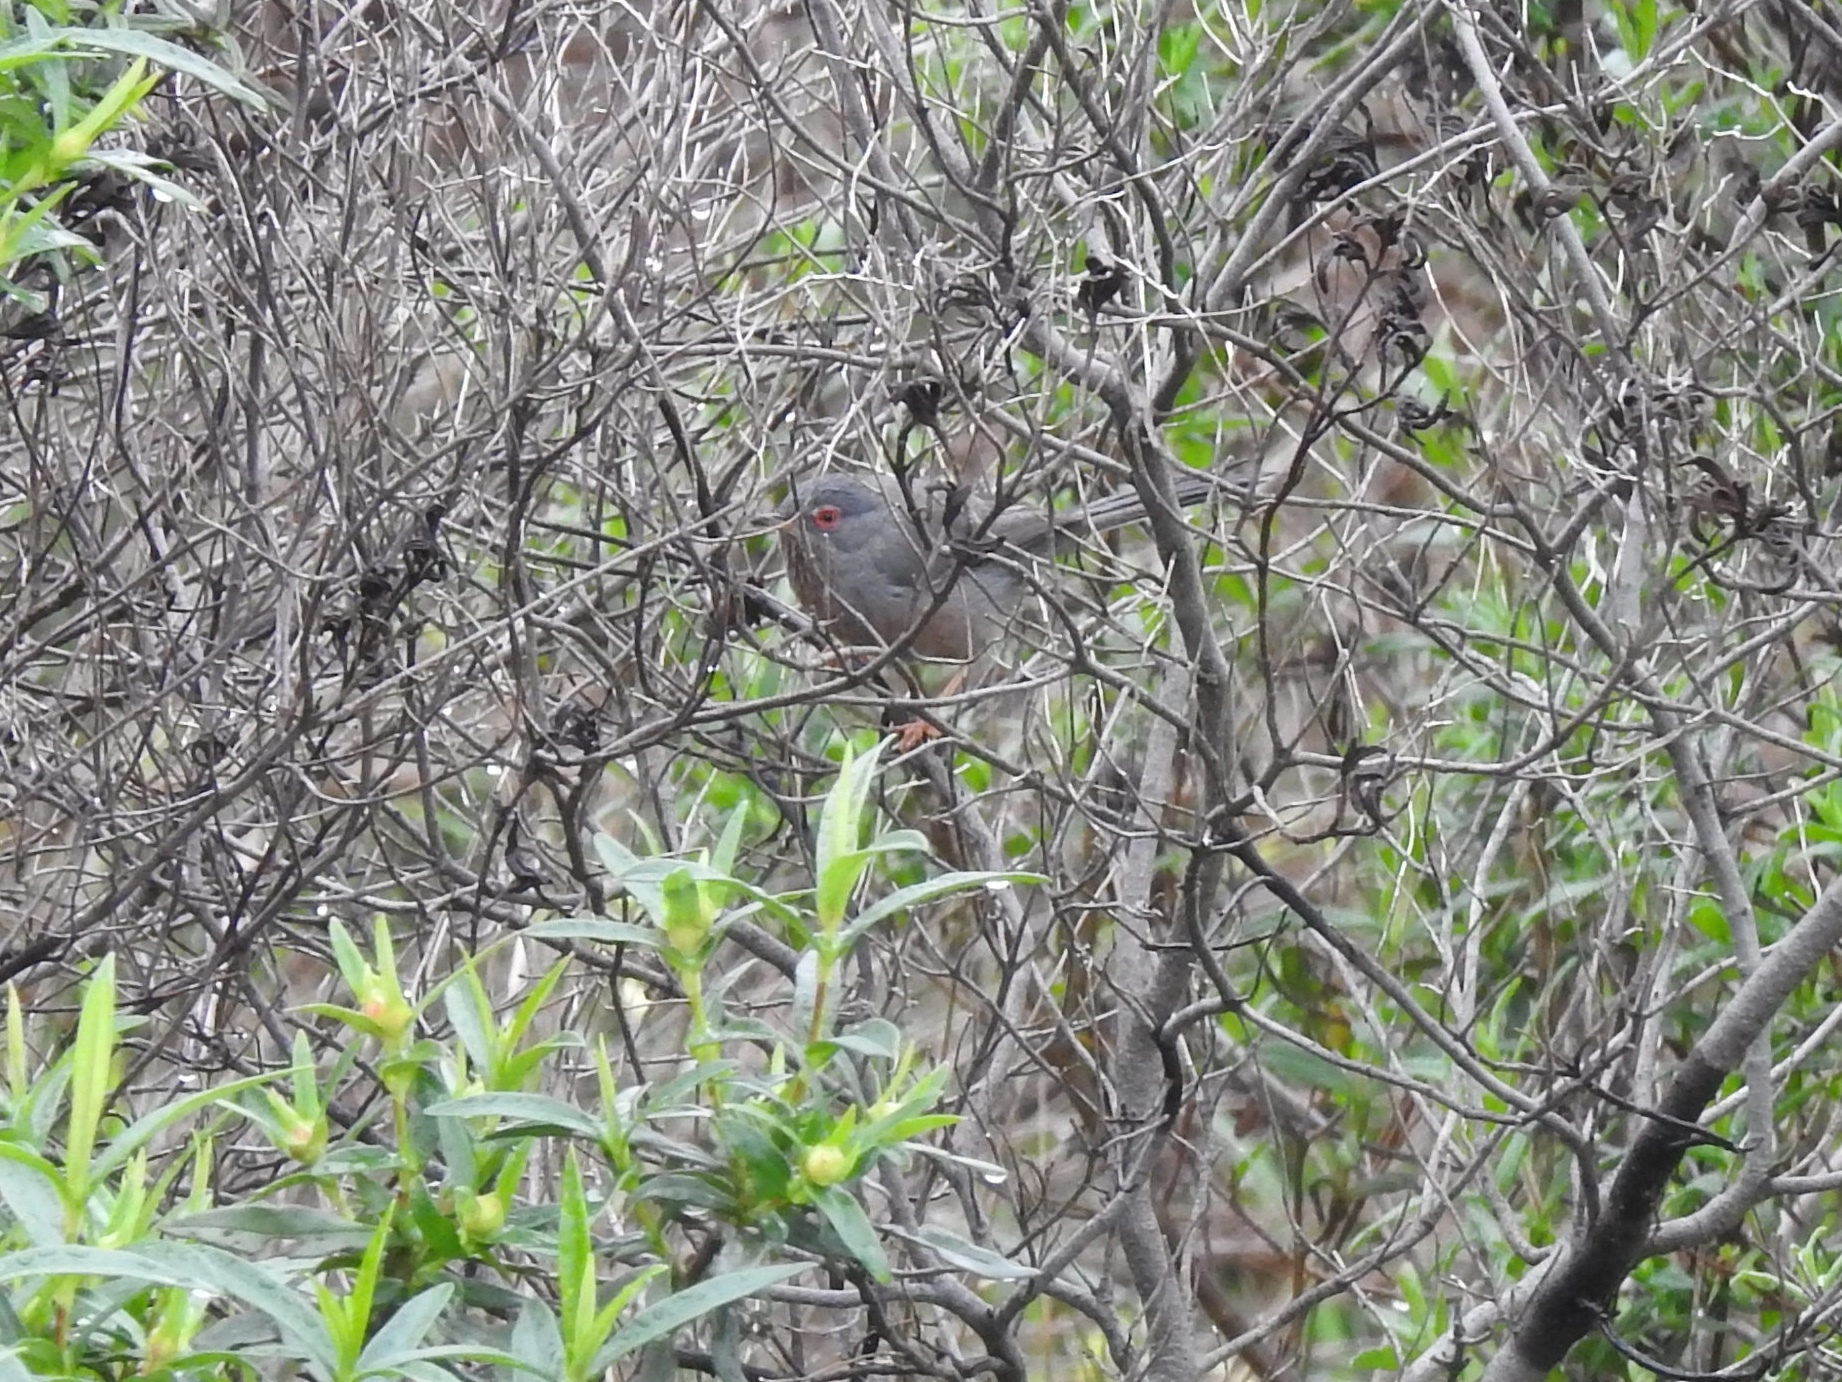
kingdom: Animalia
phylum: Chordata
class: Aves
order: Passeriformes
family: Sylviidae
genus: Sylvia
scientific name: Sylvia undata
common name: Dartford warbler
